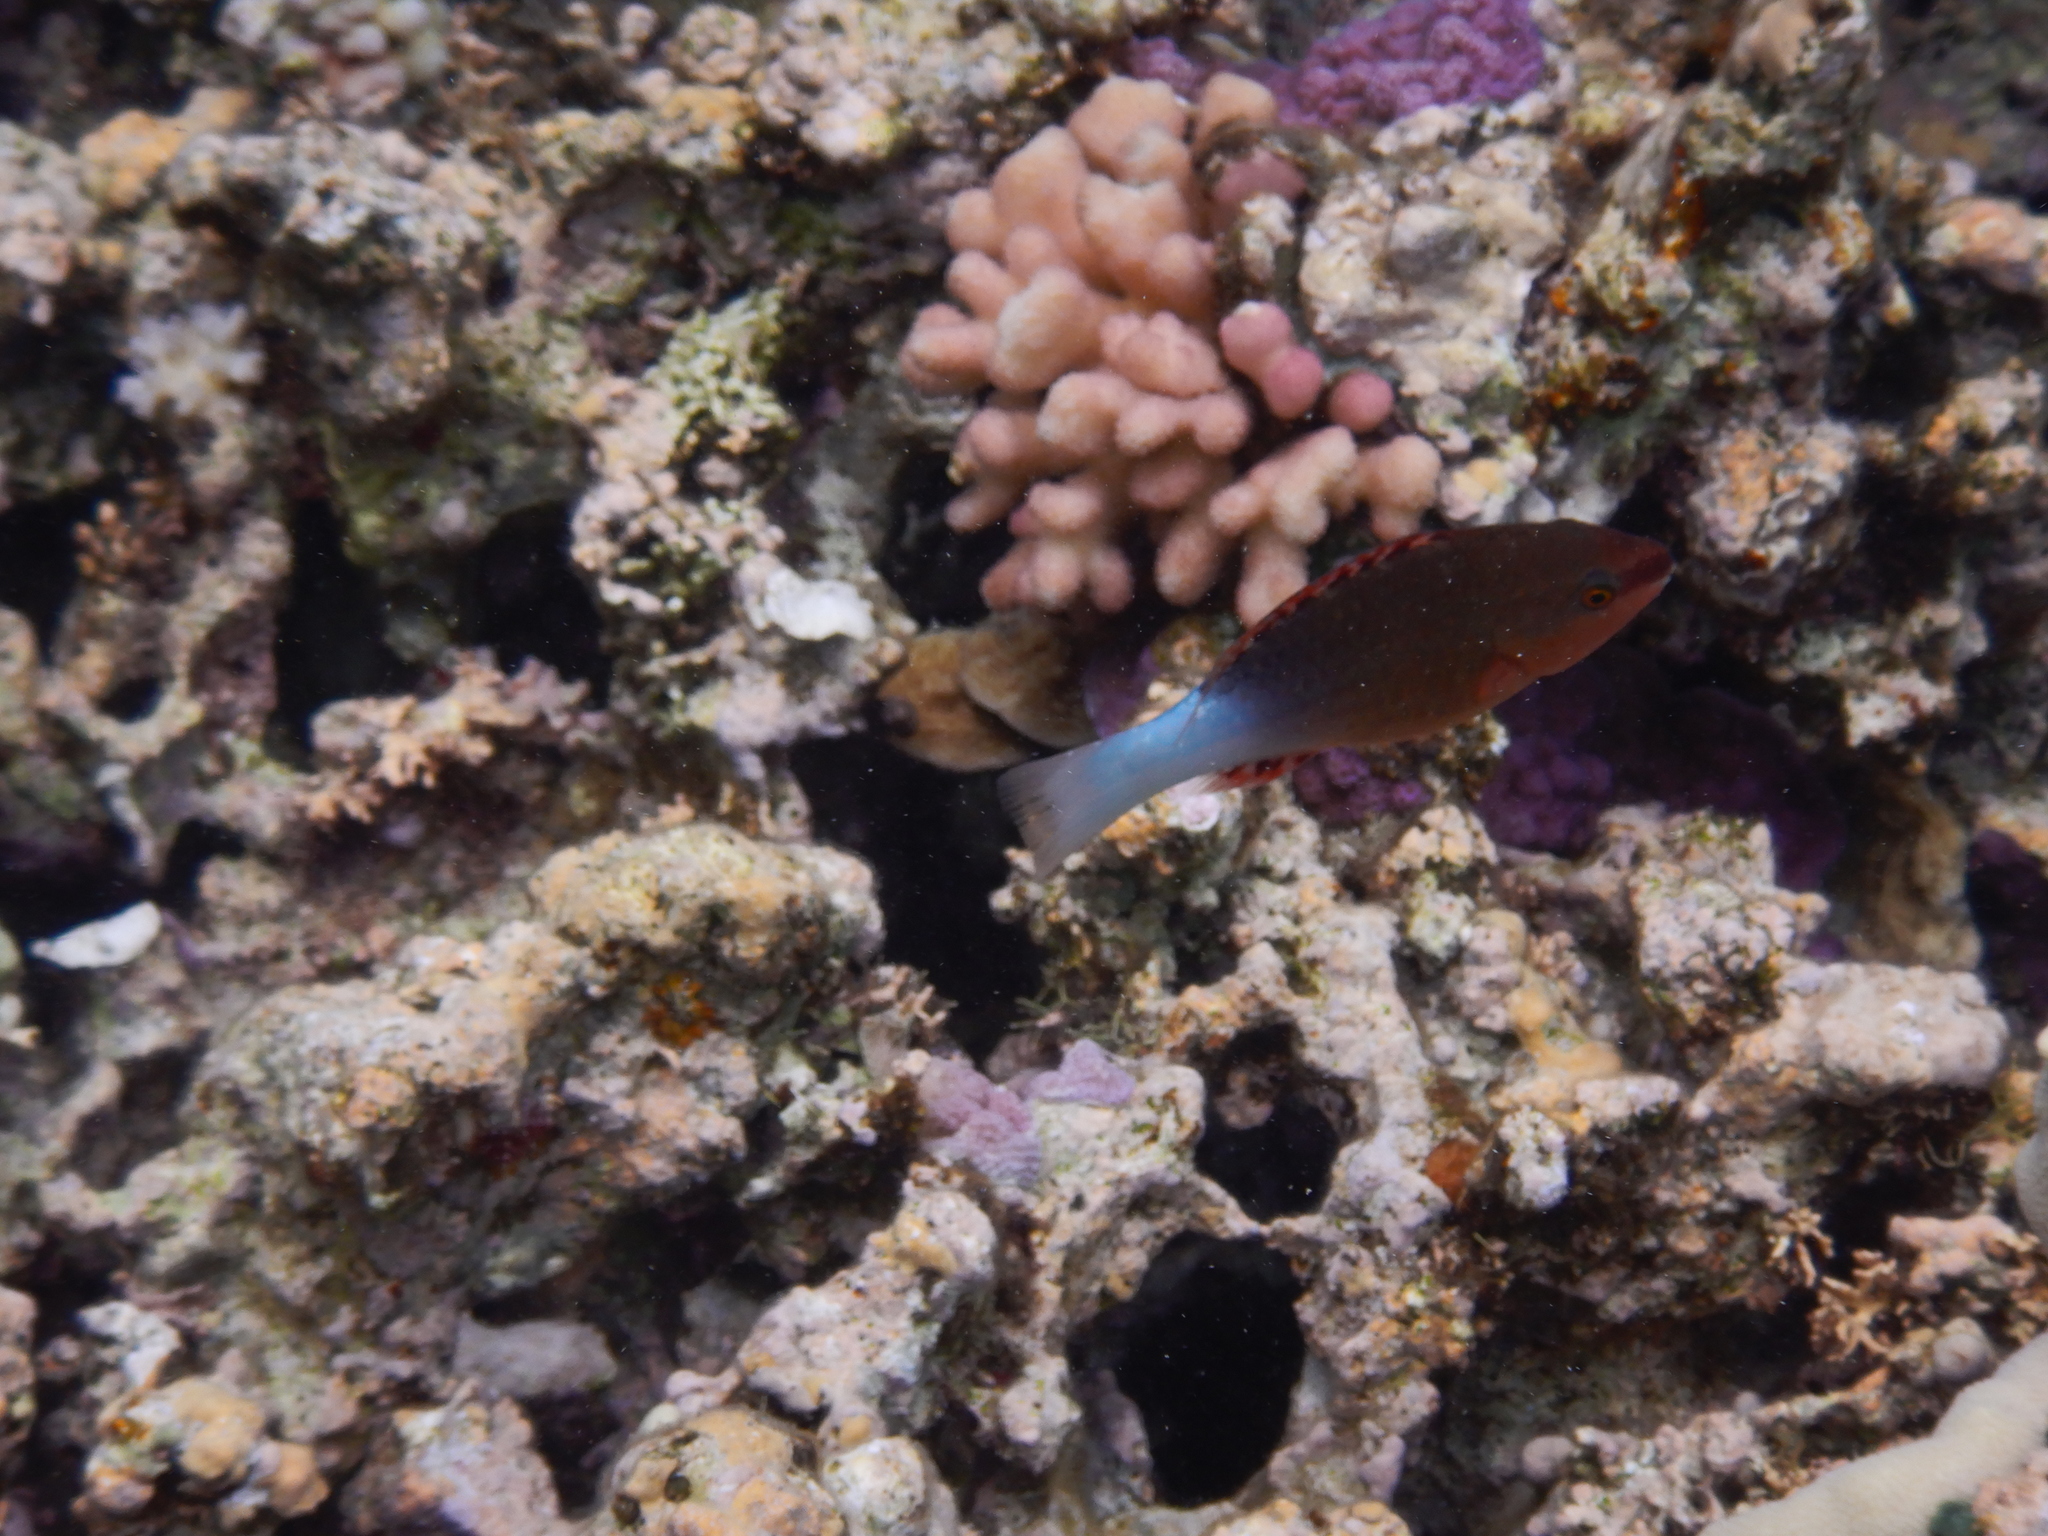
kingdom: Animalia
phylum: Chordata
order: Perciformes
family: Scaridae
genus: Scarus
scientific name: Scarus frenatus
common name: Bridled parrotfish
